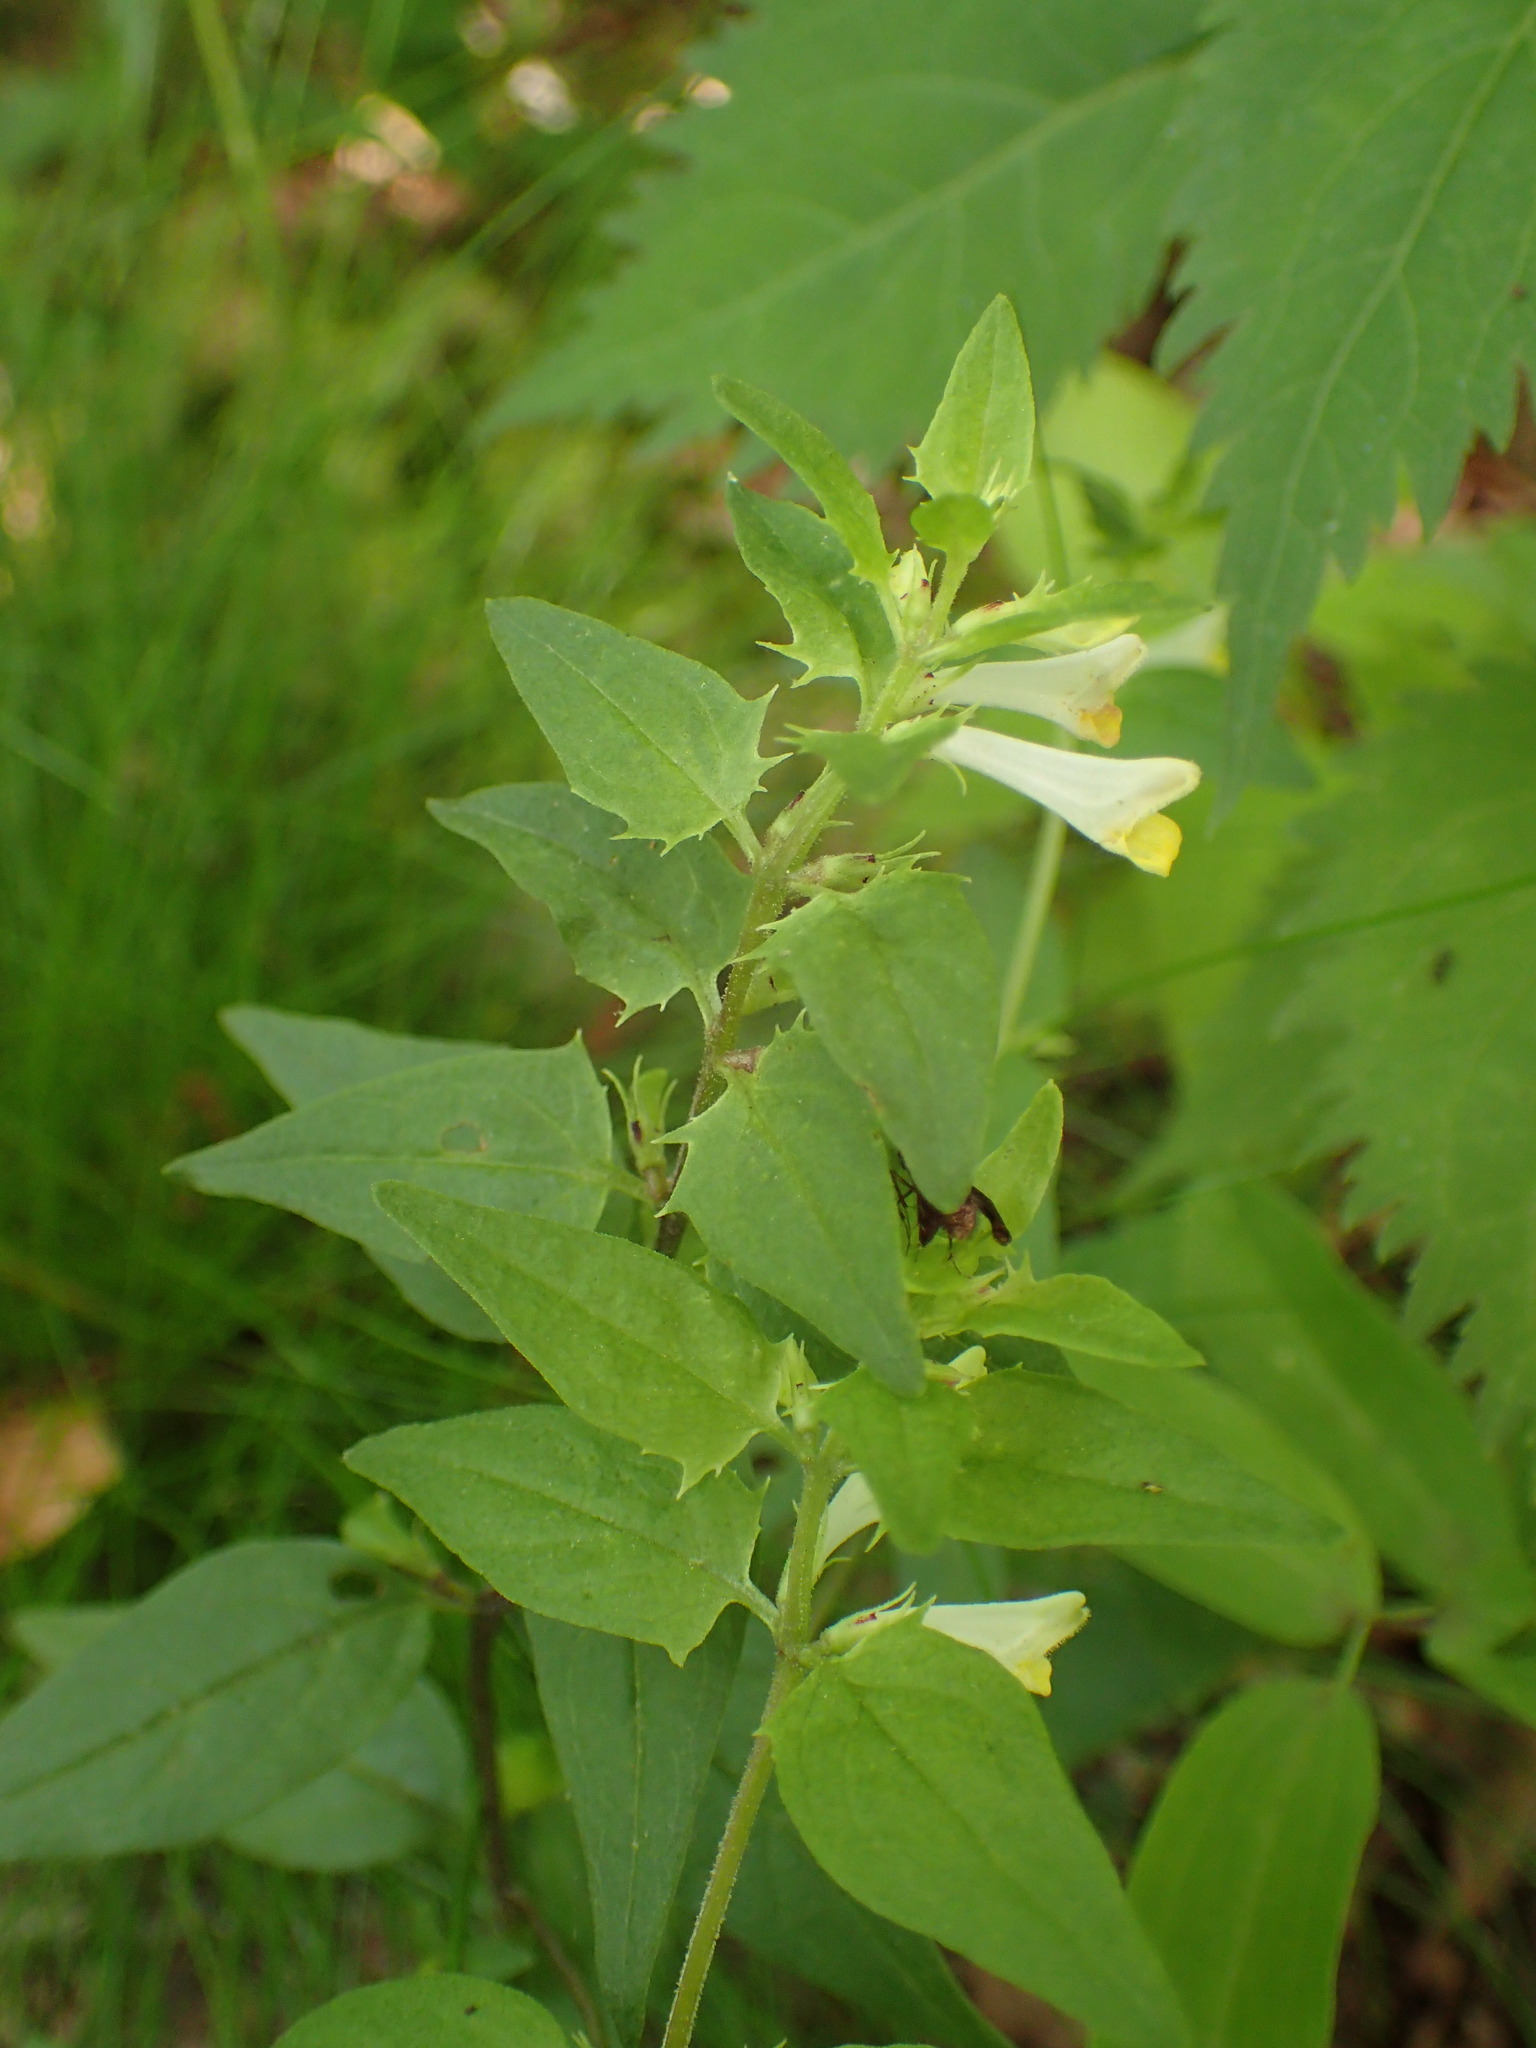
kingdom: Plantae
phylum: Tracheophyta
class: Magnoliopsida
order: Lamiales
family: Orobanchaceae
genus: Melampyrum
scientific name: Melampyrum lineare
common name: American cow-wheat
